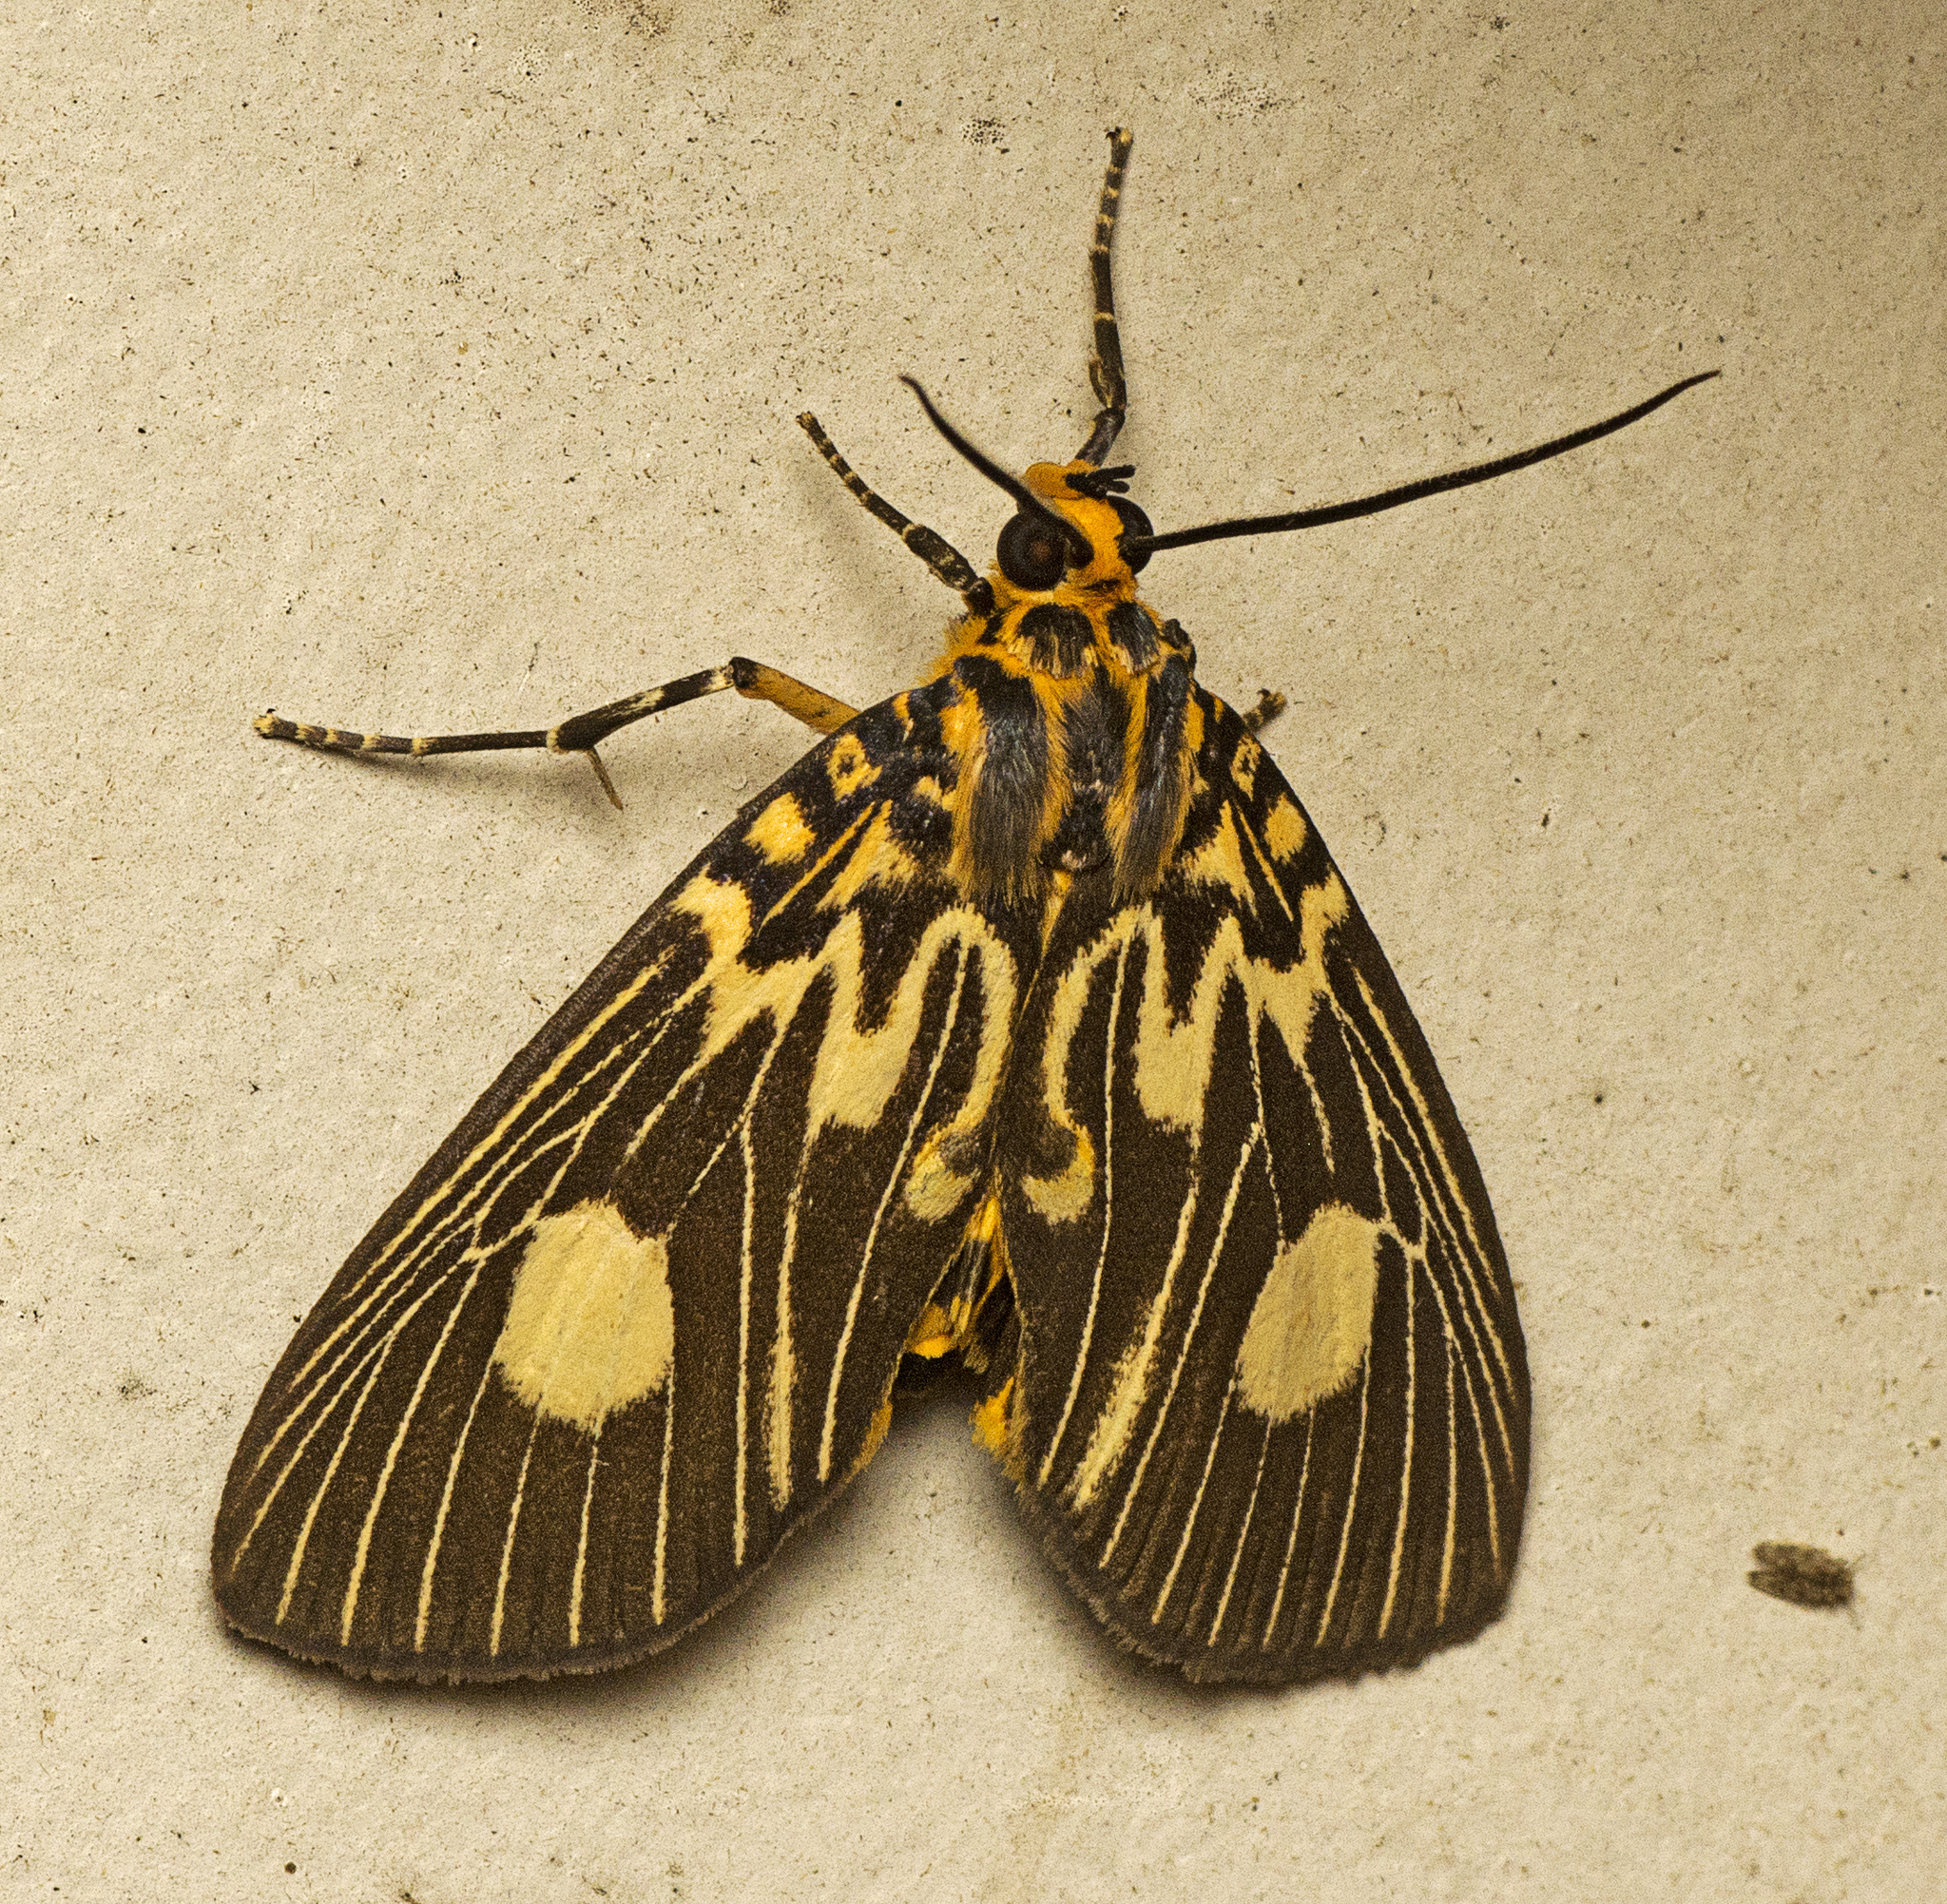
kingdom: Animalia
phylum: Arthropoda
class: Insecta
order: Lepidoptera
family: Erebidae
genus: Asota
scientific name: Asota plagiata
